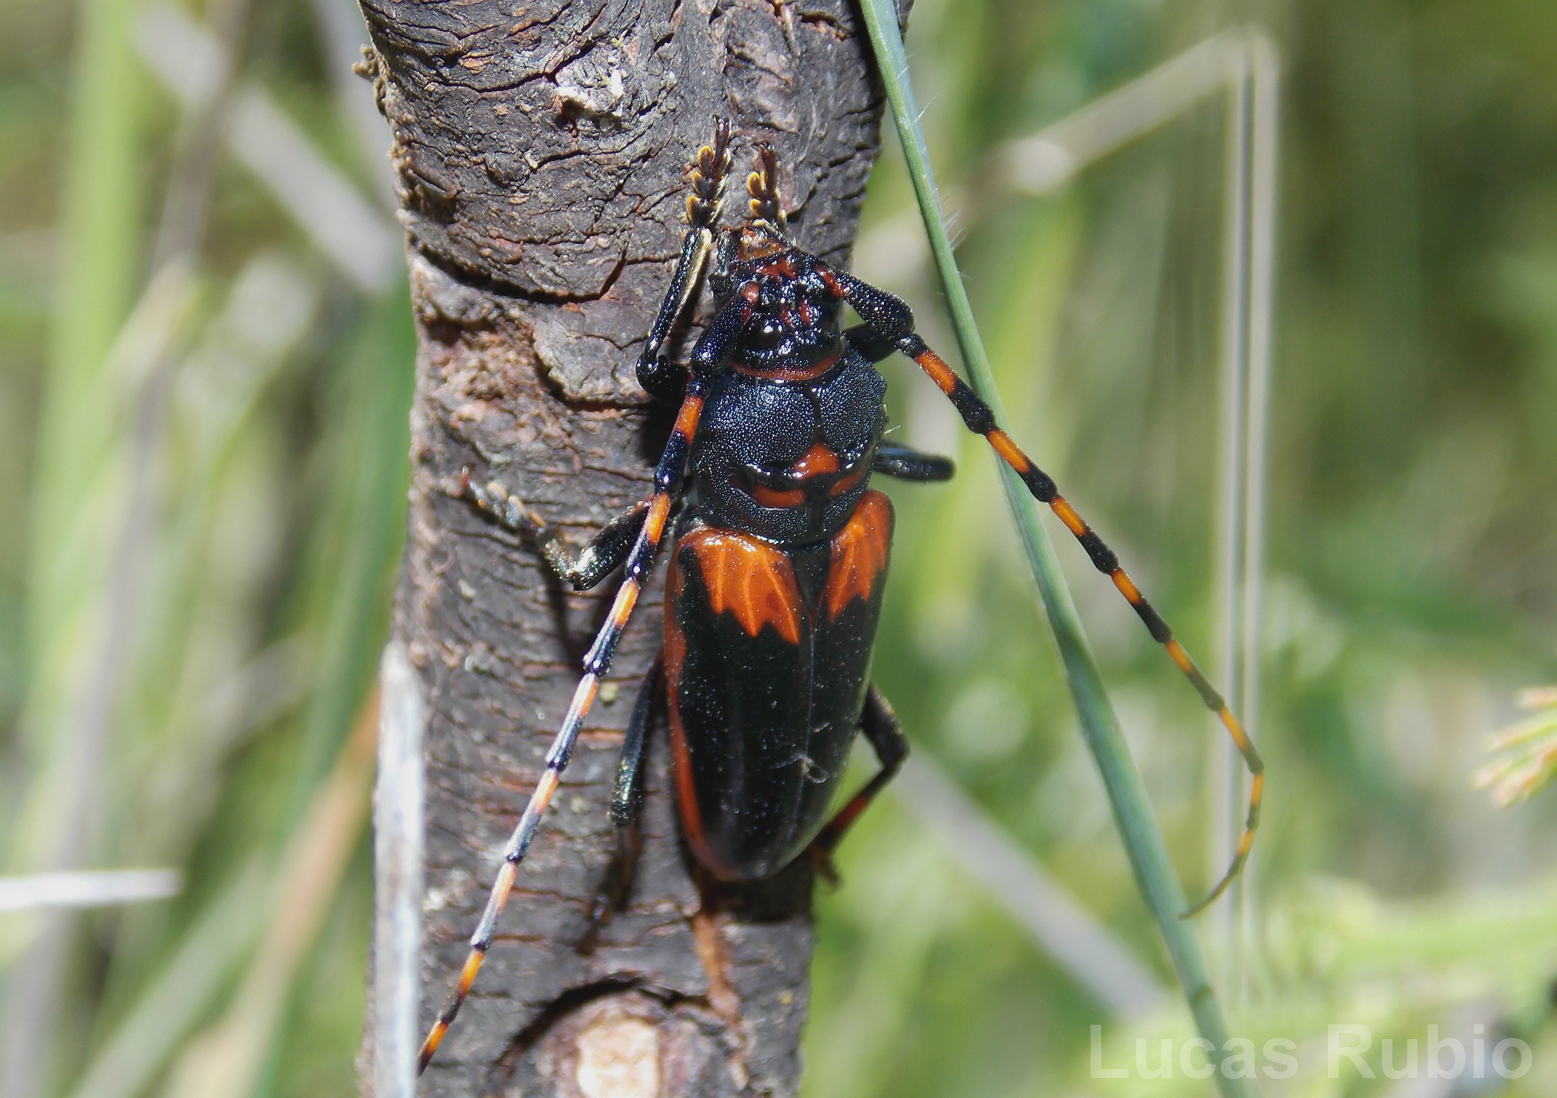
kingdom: Animalia
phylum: Arthropoda
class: Insecta
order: Coleoptera
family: Cerambycidae
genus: Andraegoidus
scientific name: Andraegoidus cruentatus
